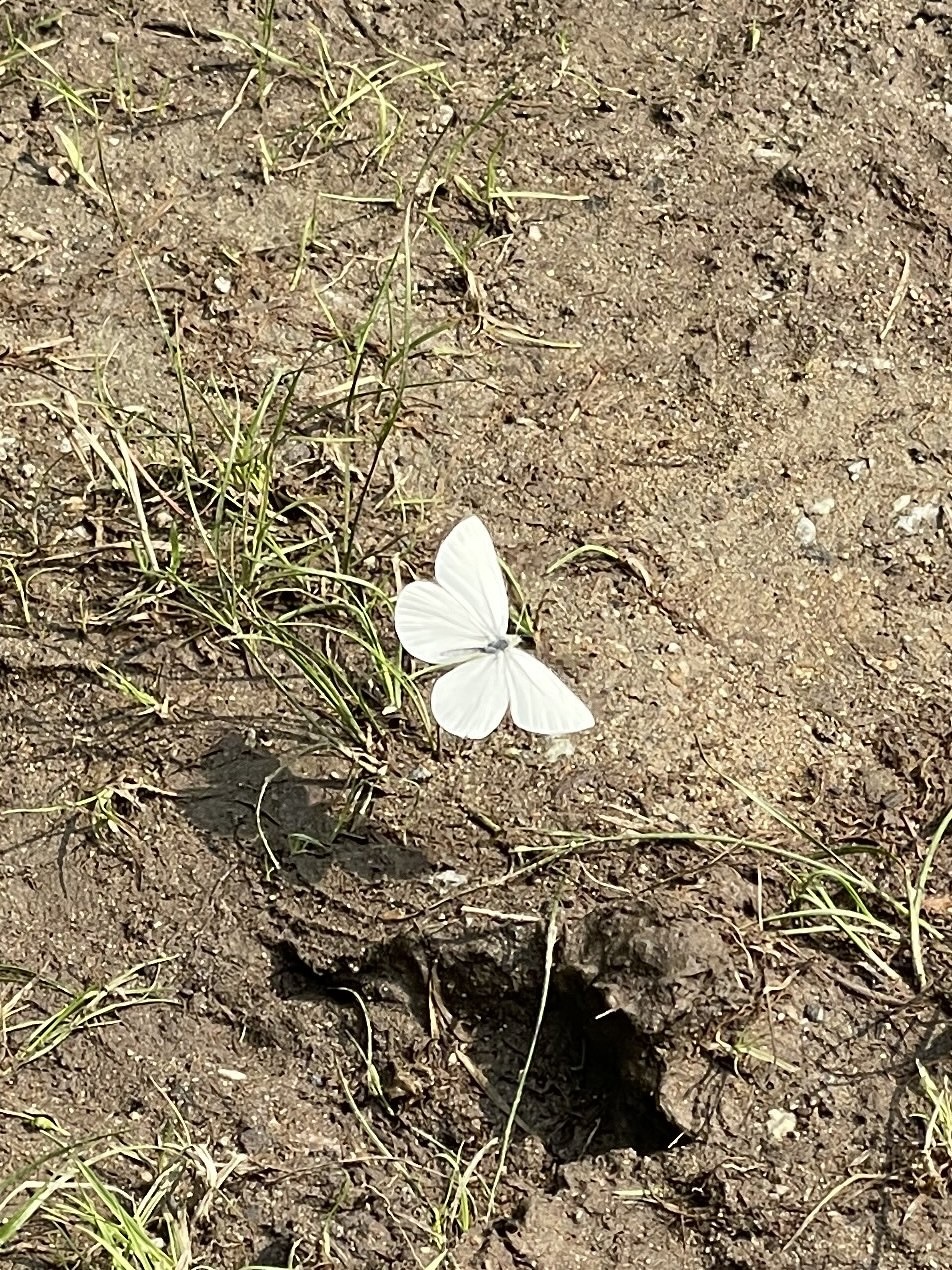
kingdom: Animalia
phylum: Arthropoda
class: Insecta
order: Lepidoptera
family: Pieridae
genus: Pieris
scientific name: Pieris marginalis
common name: Margined white
